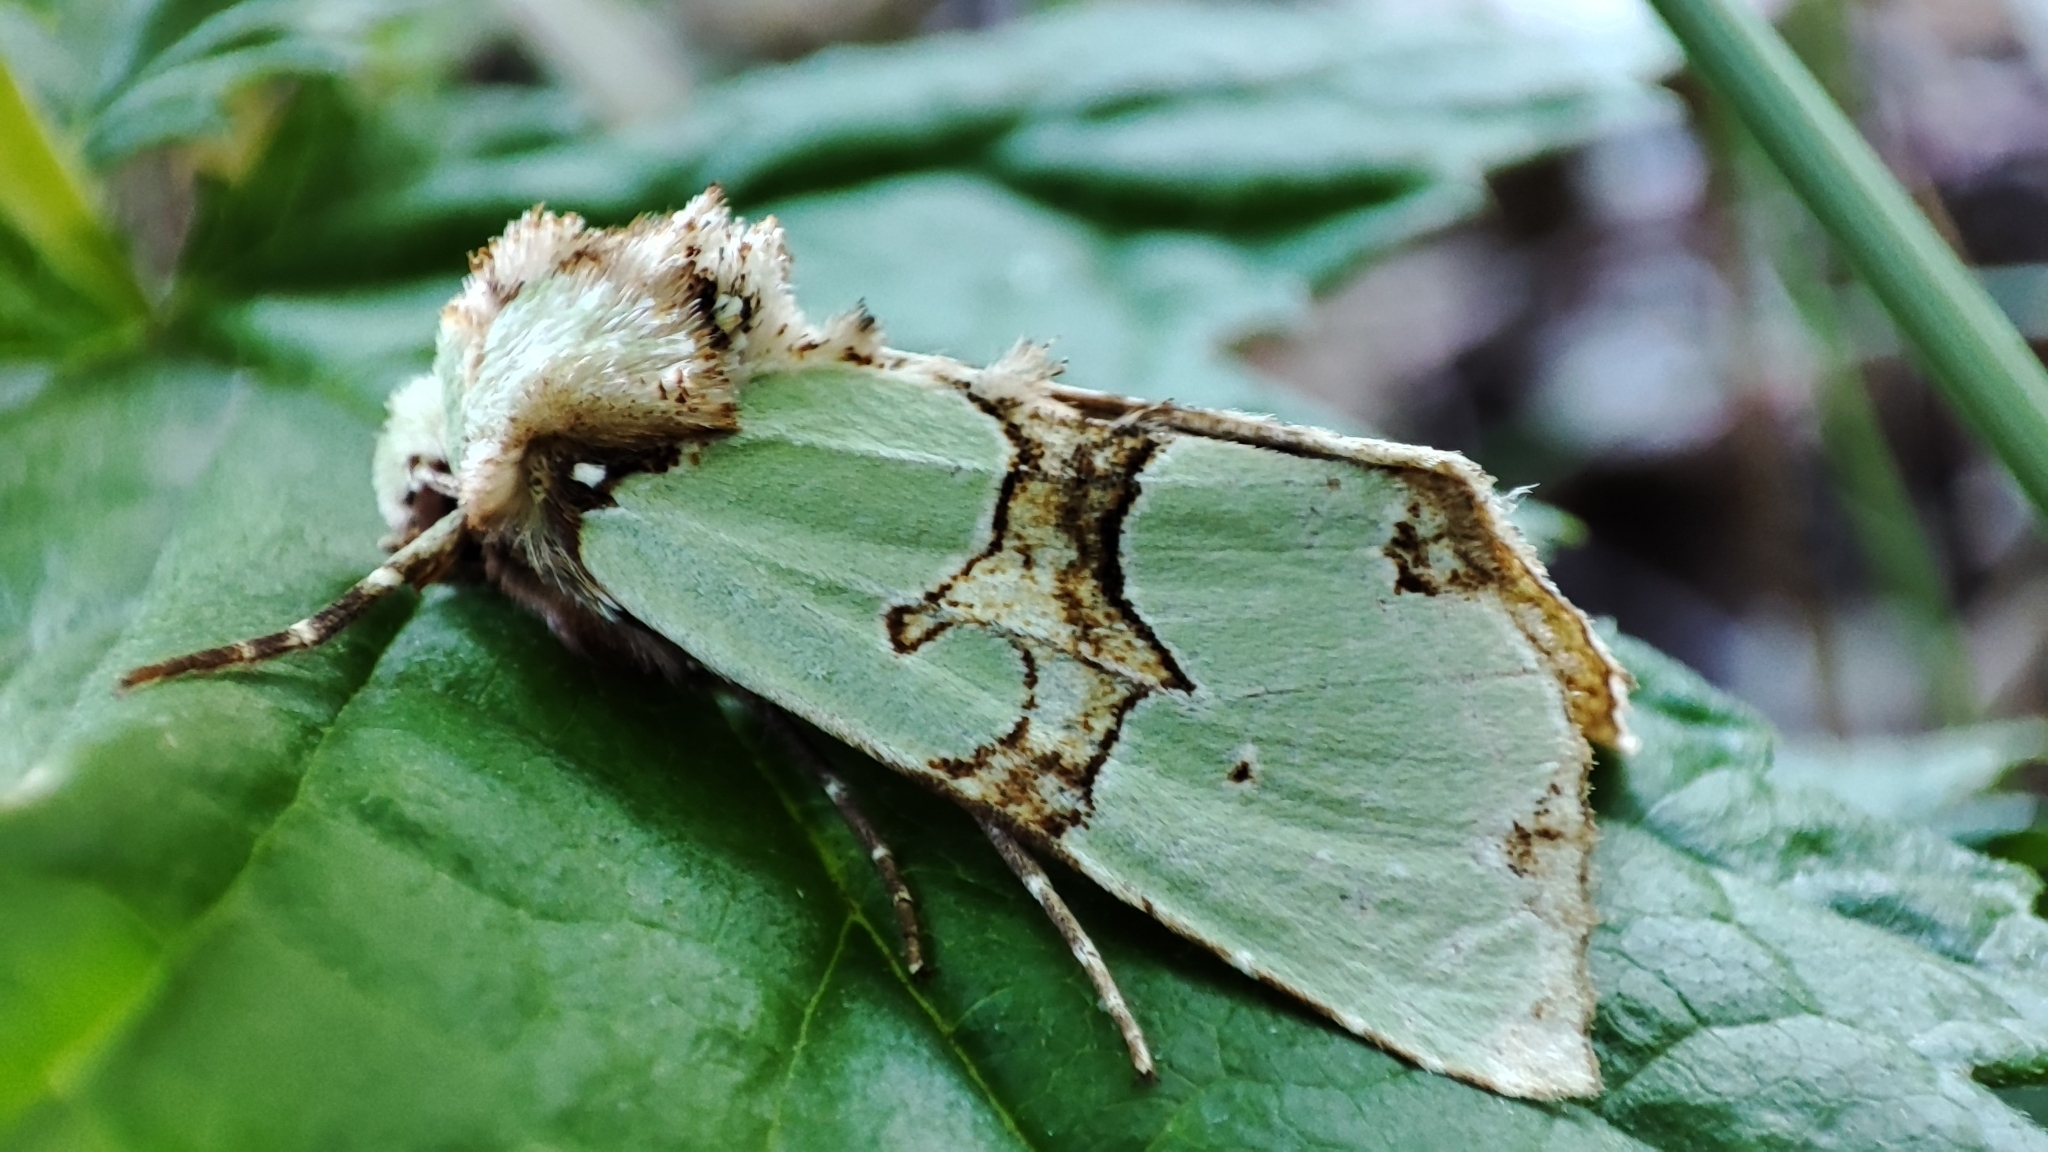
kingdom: Animalia
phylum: Arthropoda
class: Insecta
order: Lepidoptera
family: Noctuidae
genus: Staurophora
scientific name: Staurophora celsia
